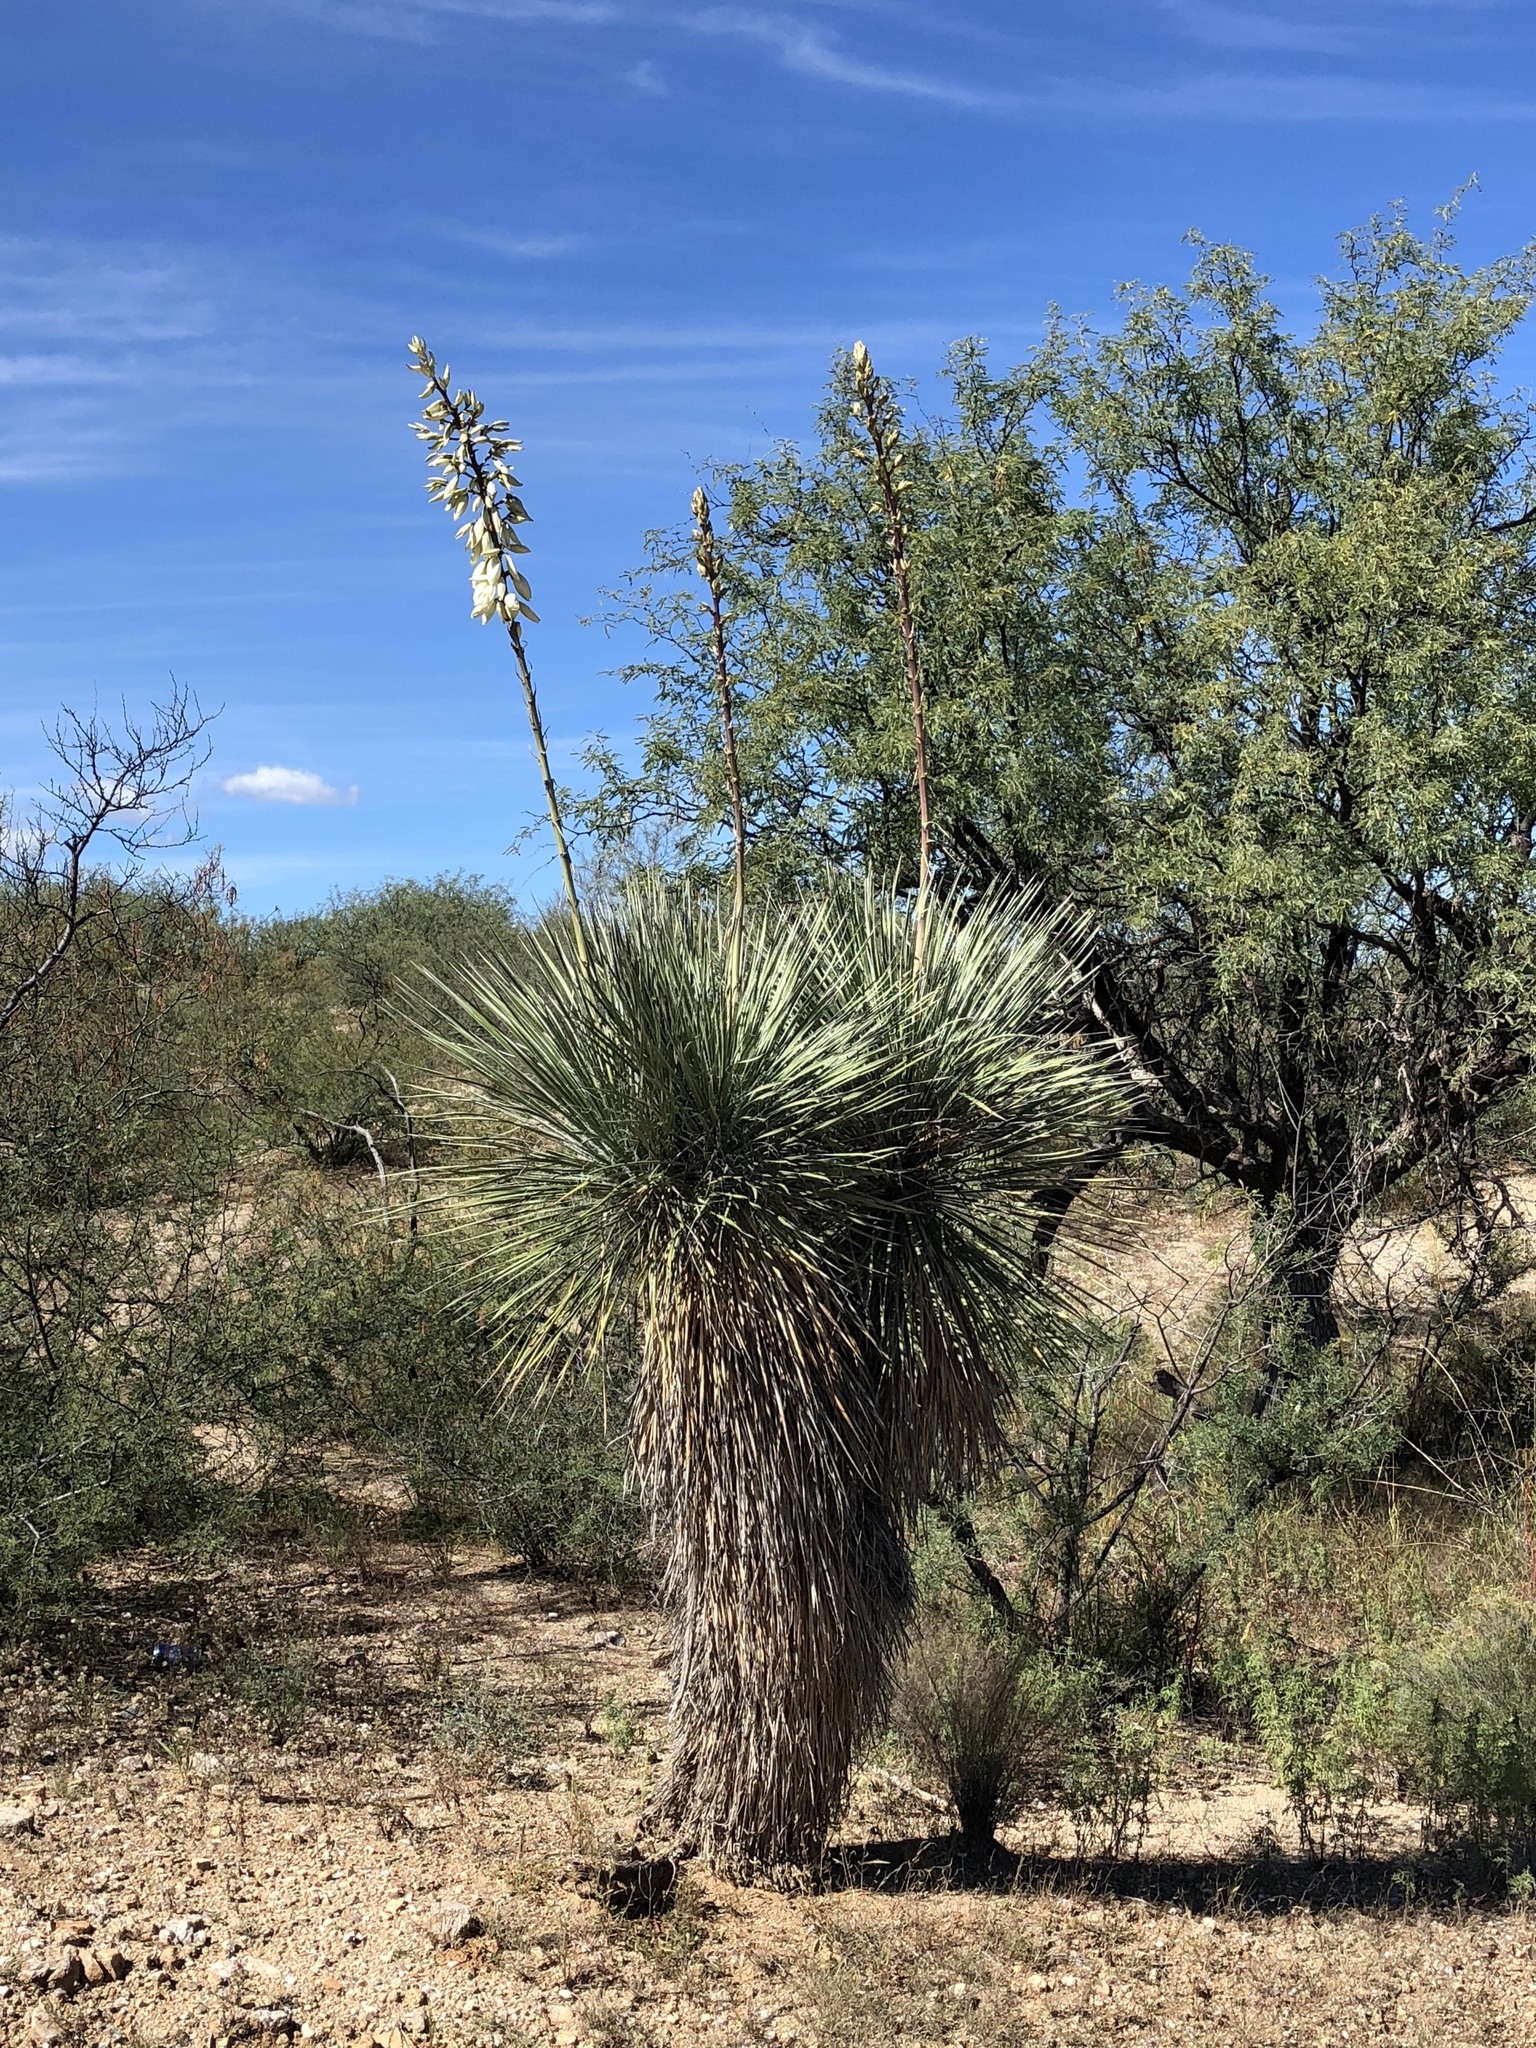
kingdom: Plantae
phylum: Tracheophyta
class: Liliopsida
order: Asparagales
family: Asparagaceae
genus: Yucca
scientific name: Yucca elata
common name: Palmella
